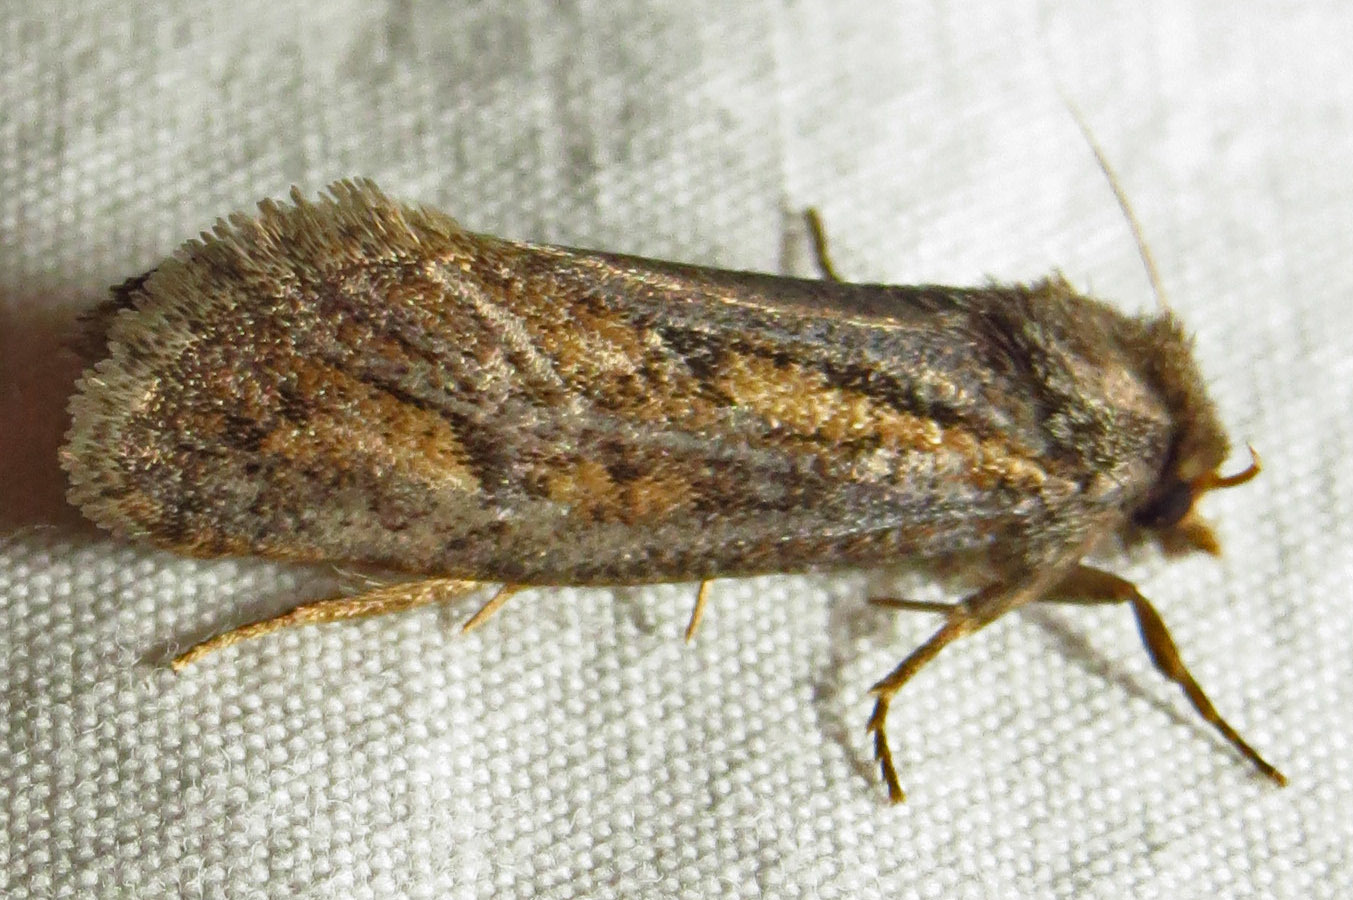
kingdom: Animalia
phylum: Arthropoda
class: Insecta
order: Lepidoptera
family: Tineidae
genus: Acrolophus
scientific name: Acrolophus popeanella
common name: Clemens' grass tubeworm moth
